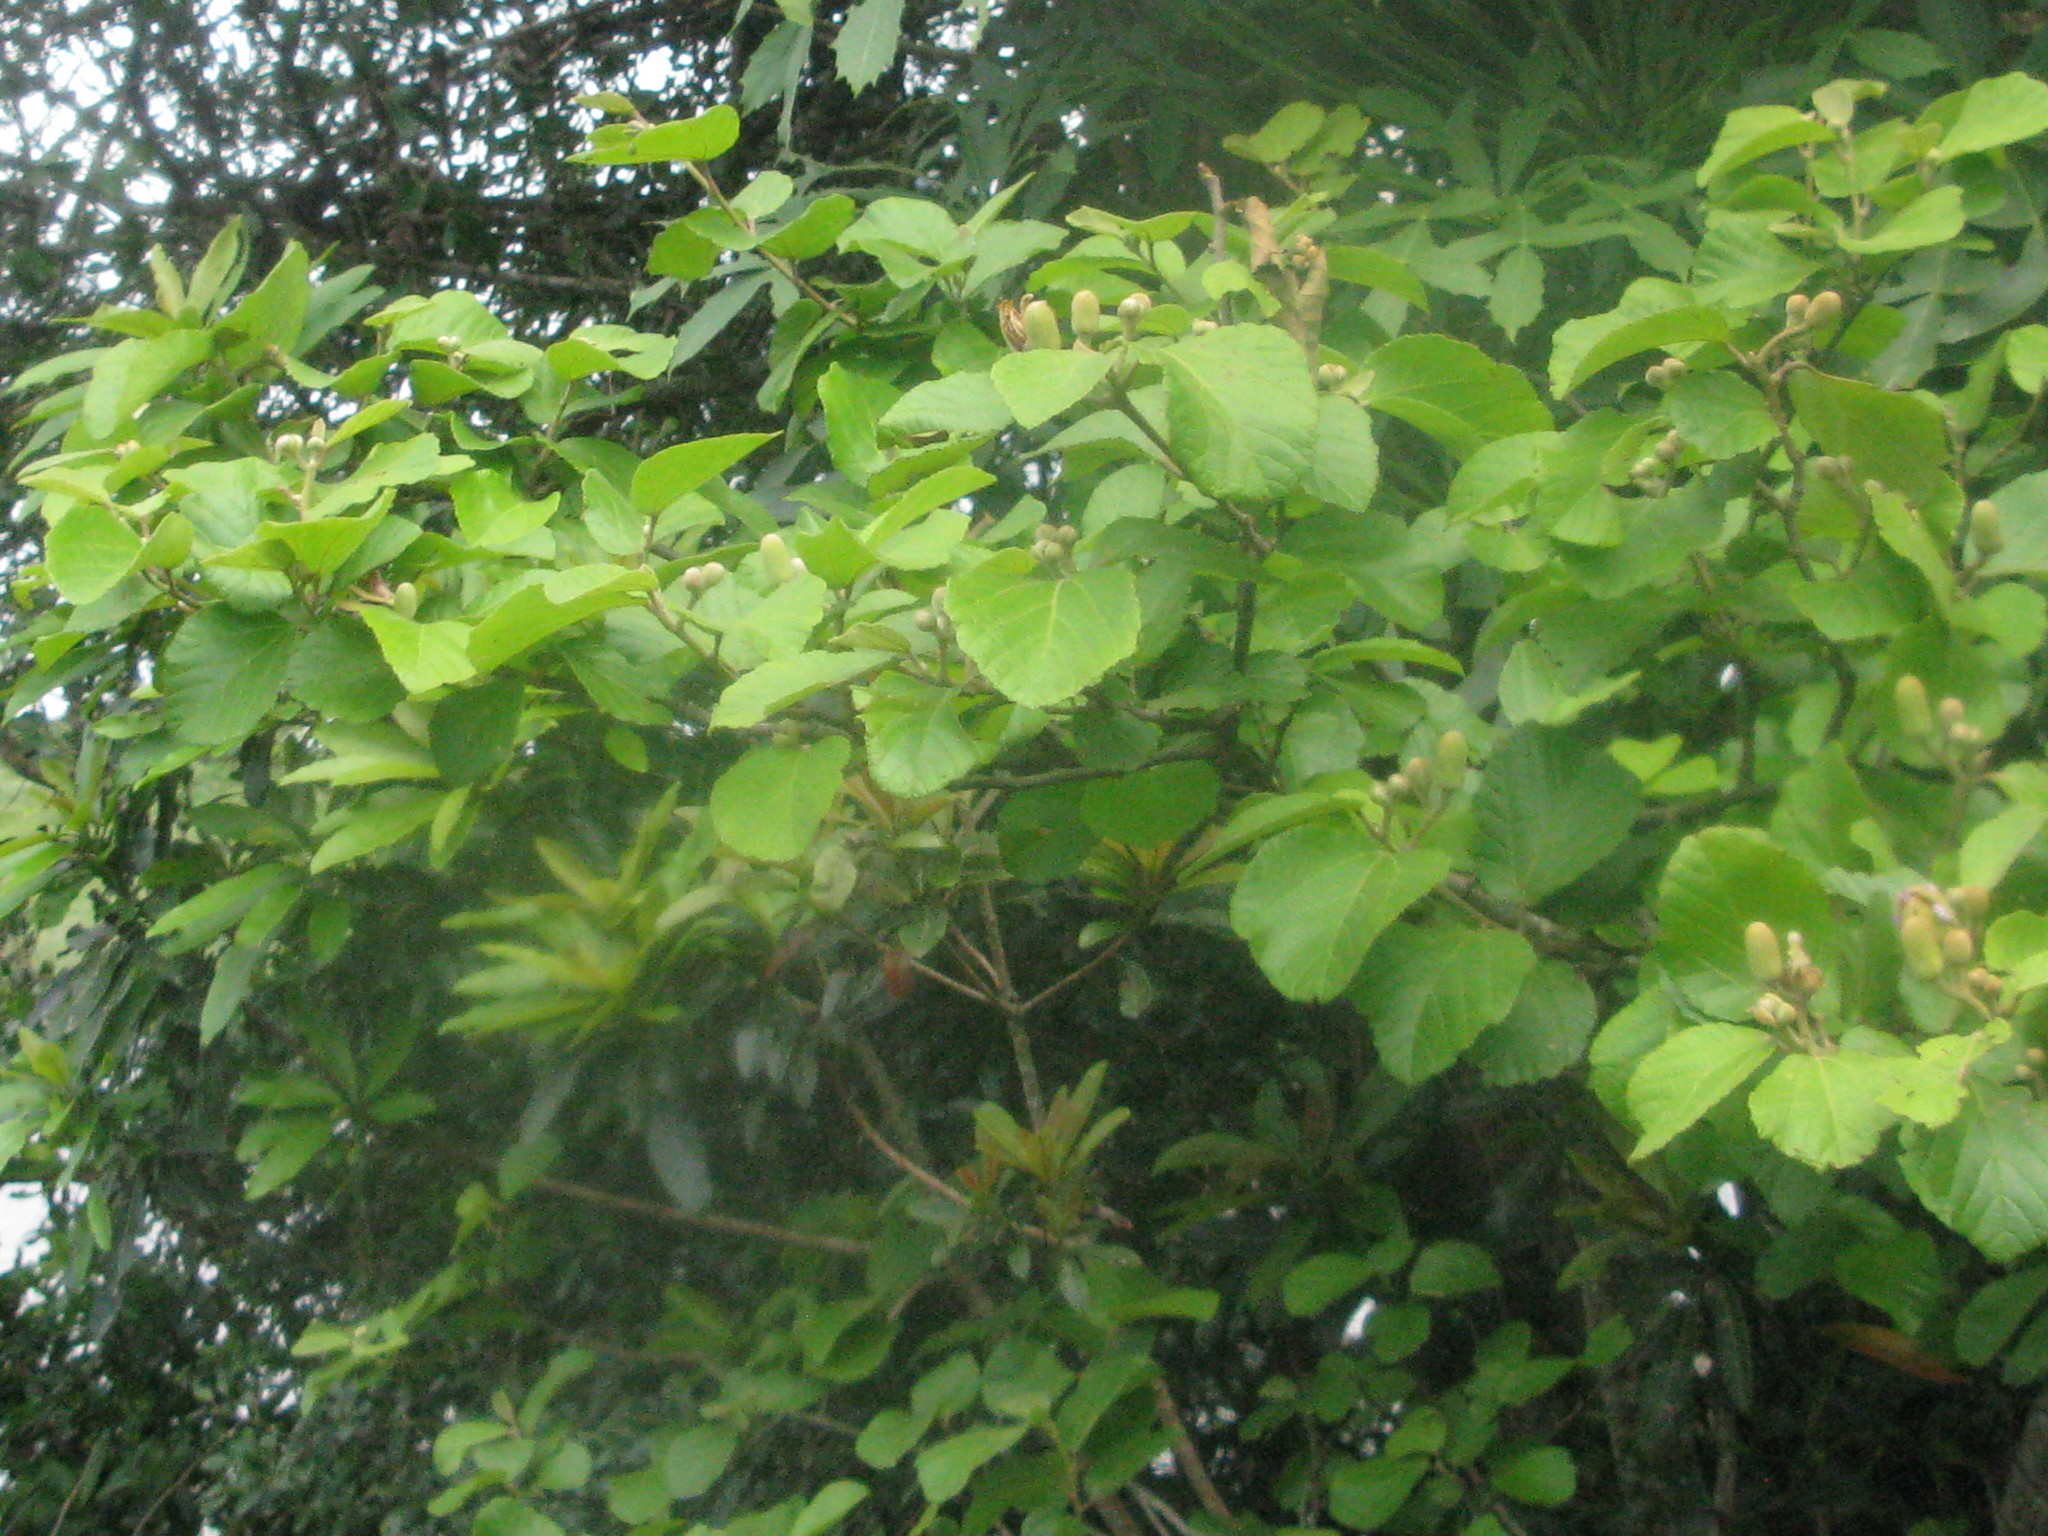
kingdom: Plantae
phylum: Tracheophyta
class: Magnoliopsida
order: Malvales
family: Malvaceae
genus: Grewia
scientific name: Grewia lasiocarpa
